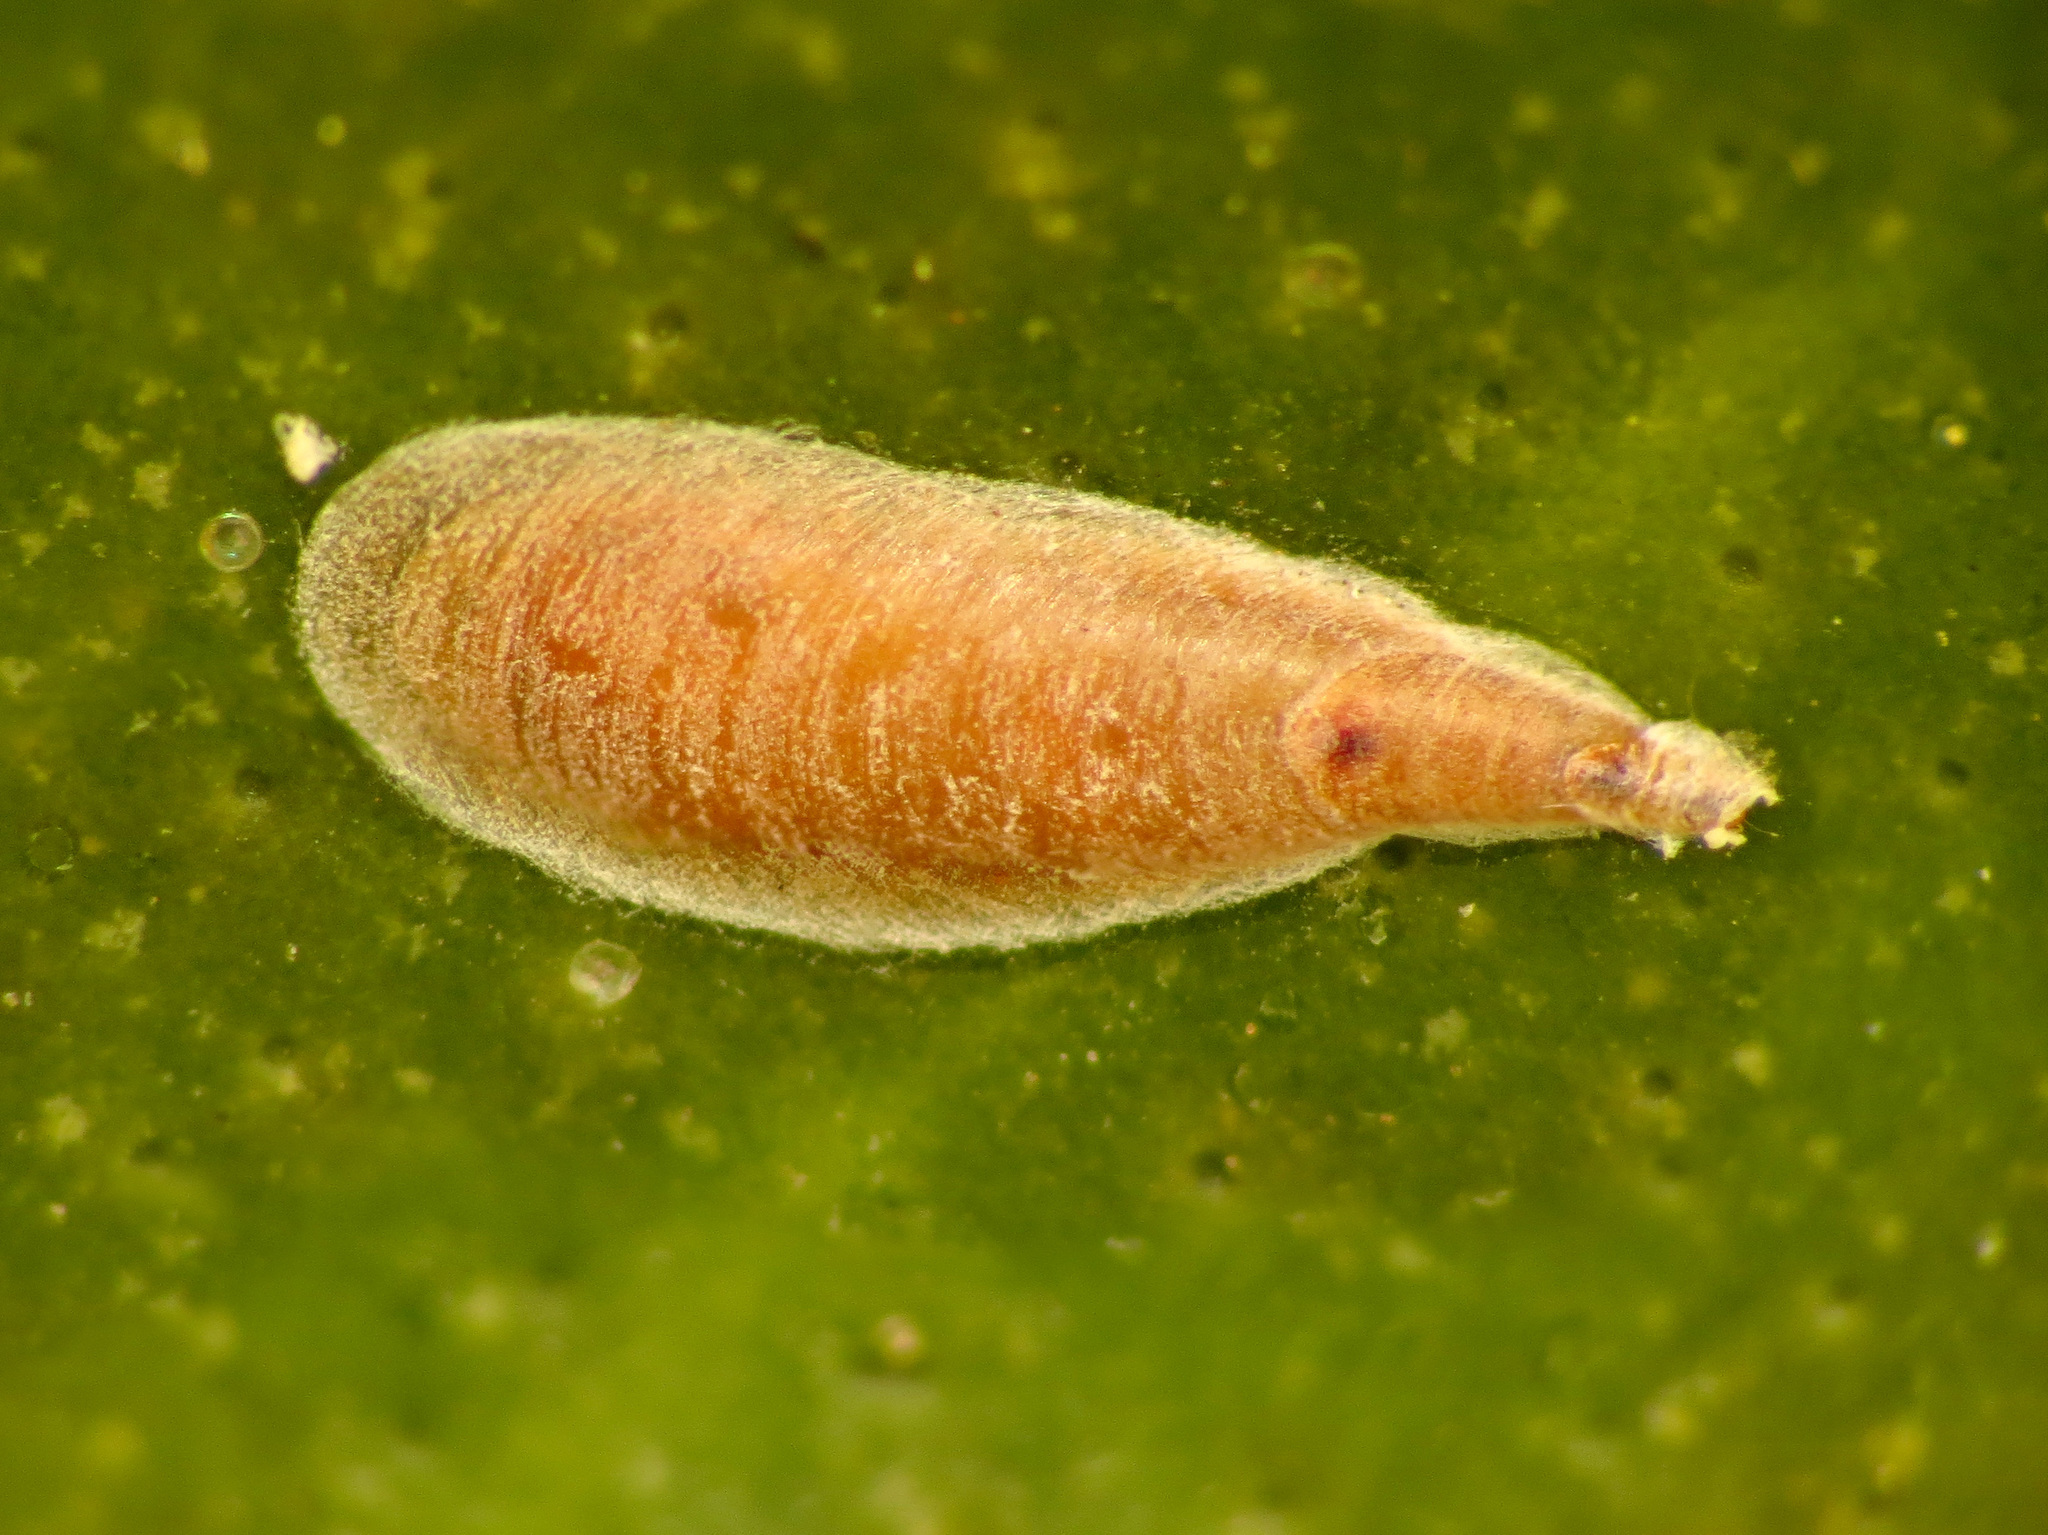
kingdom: Animalia
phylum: Arthropoda
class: Insecta
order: Hemiptera
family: Diaspididae
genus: Lepidosaphes
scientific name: Lepidosaphes beckii
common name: Purple scale
